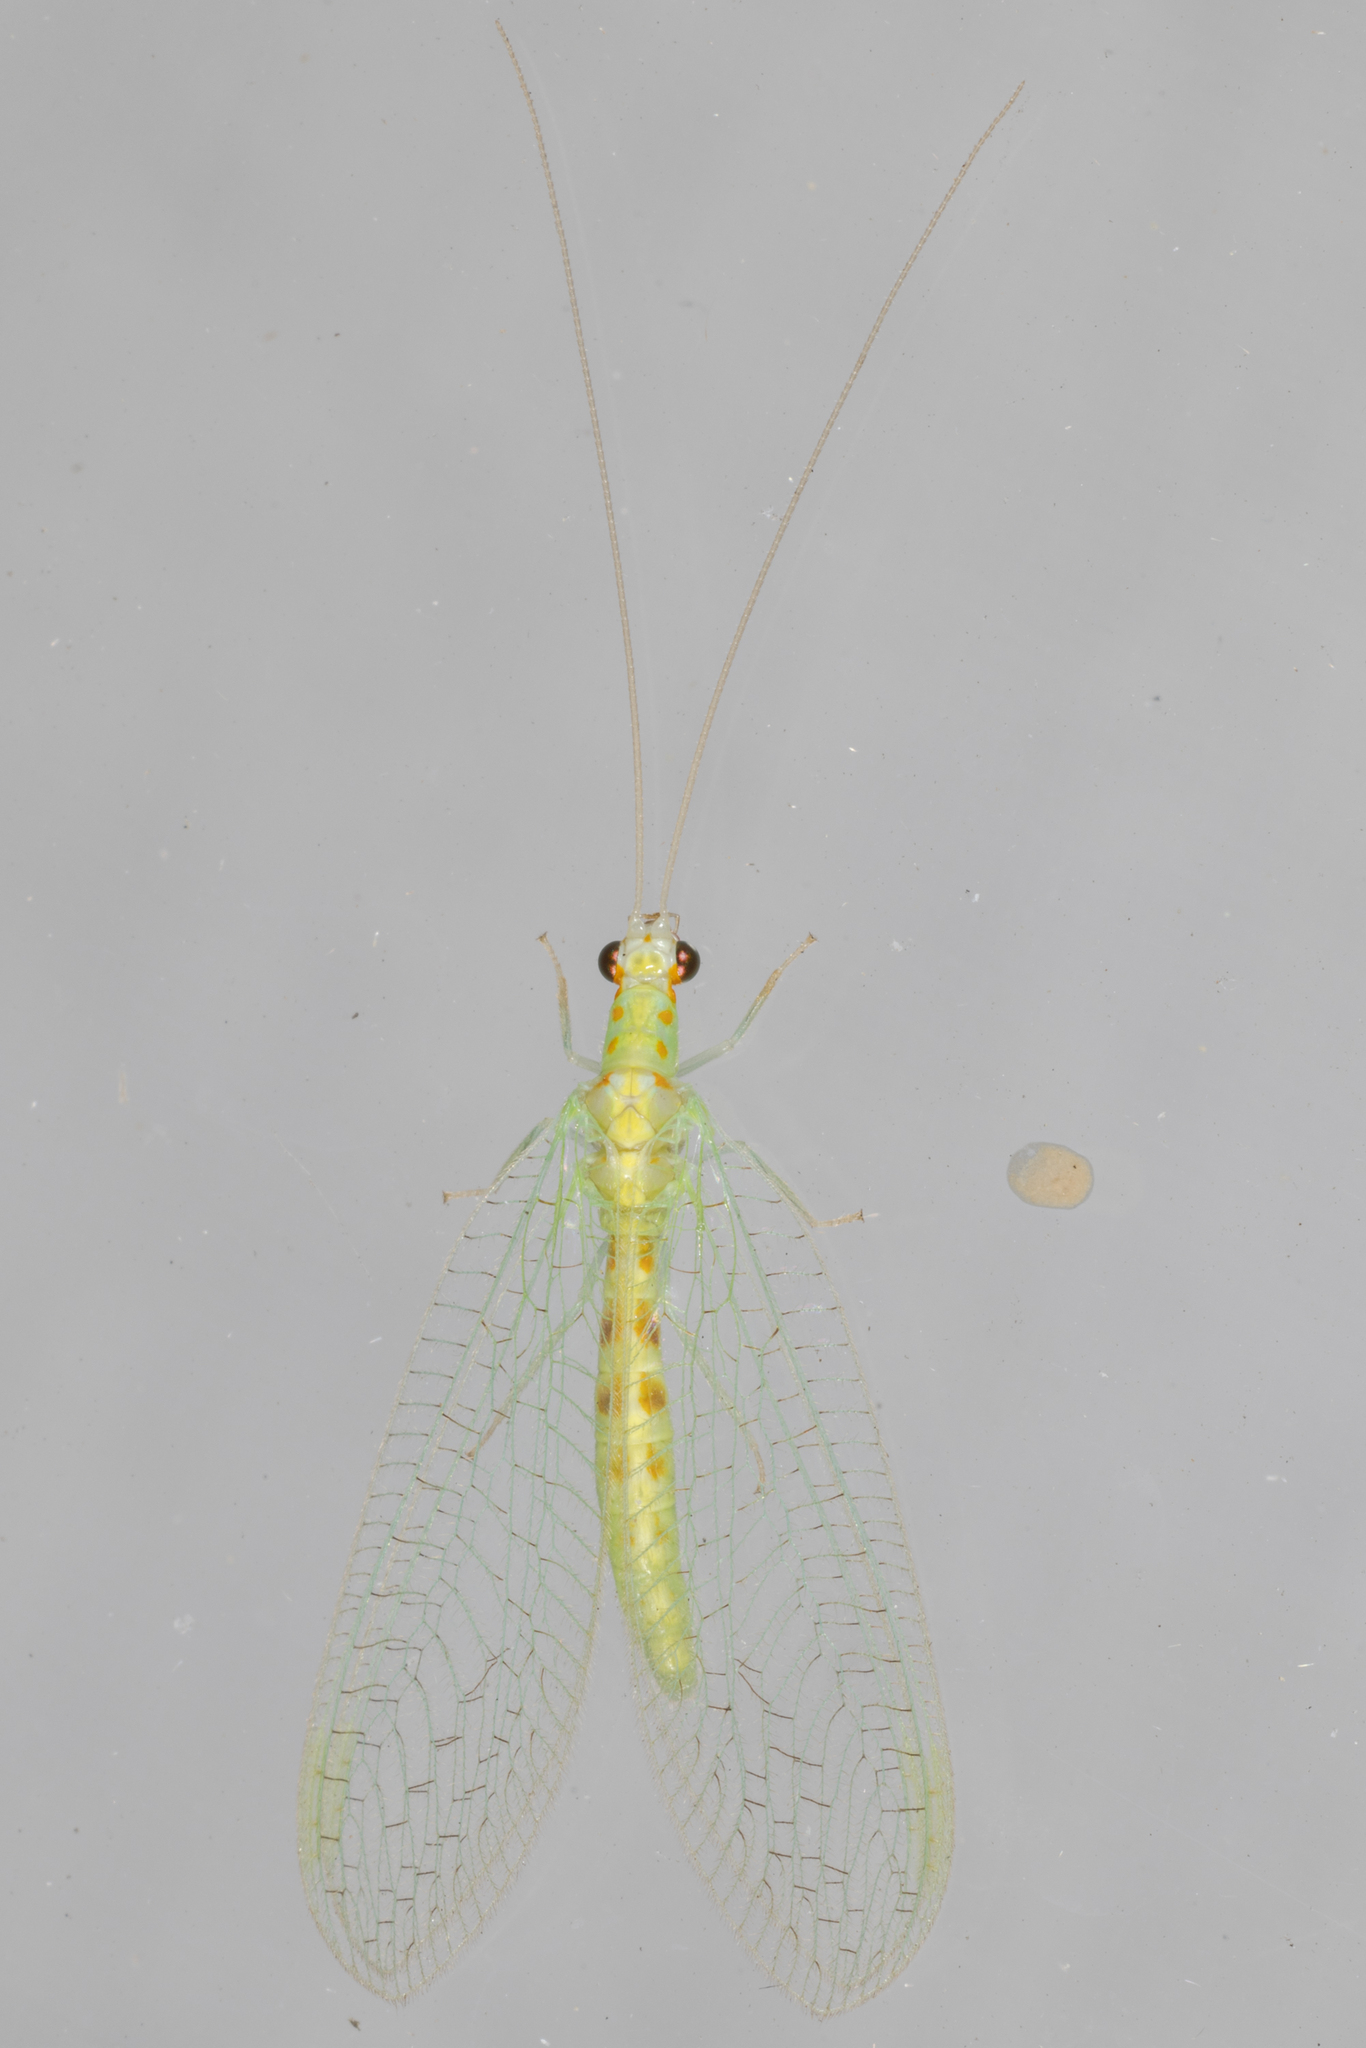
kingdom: Animalia
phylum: Arthropoda
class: Insecta
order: Neuroptera
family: Chrysopidae
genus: Chrysopa
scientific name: Chrysopa quadripunctata
